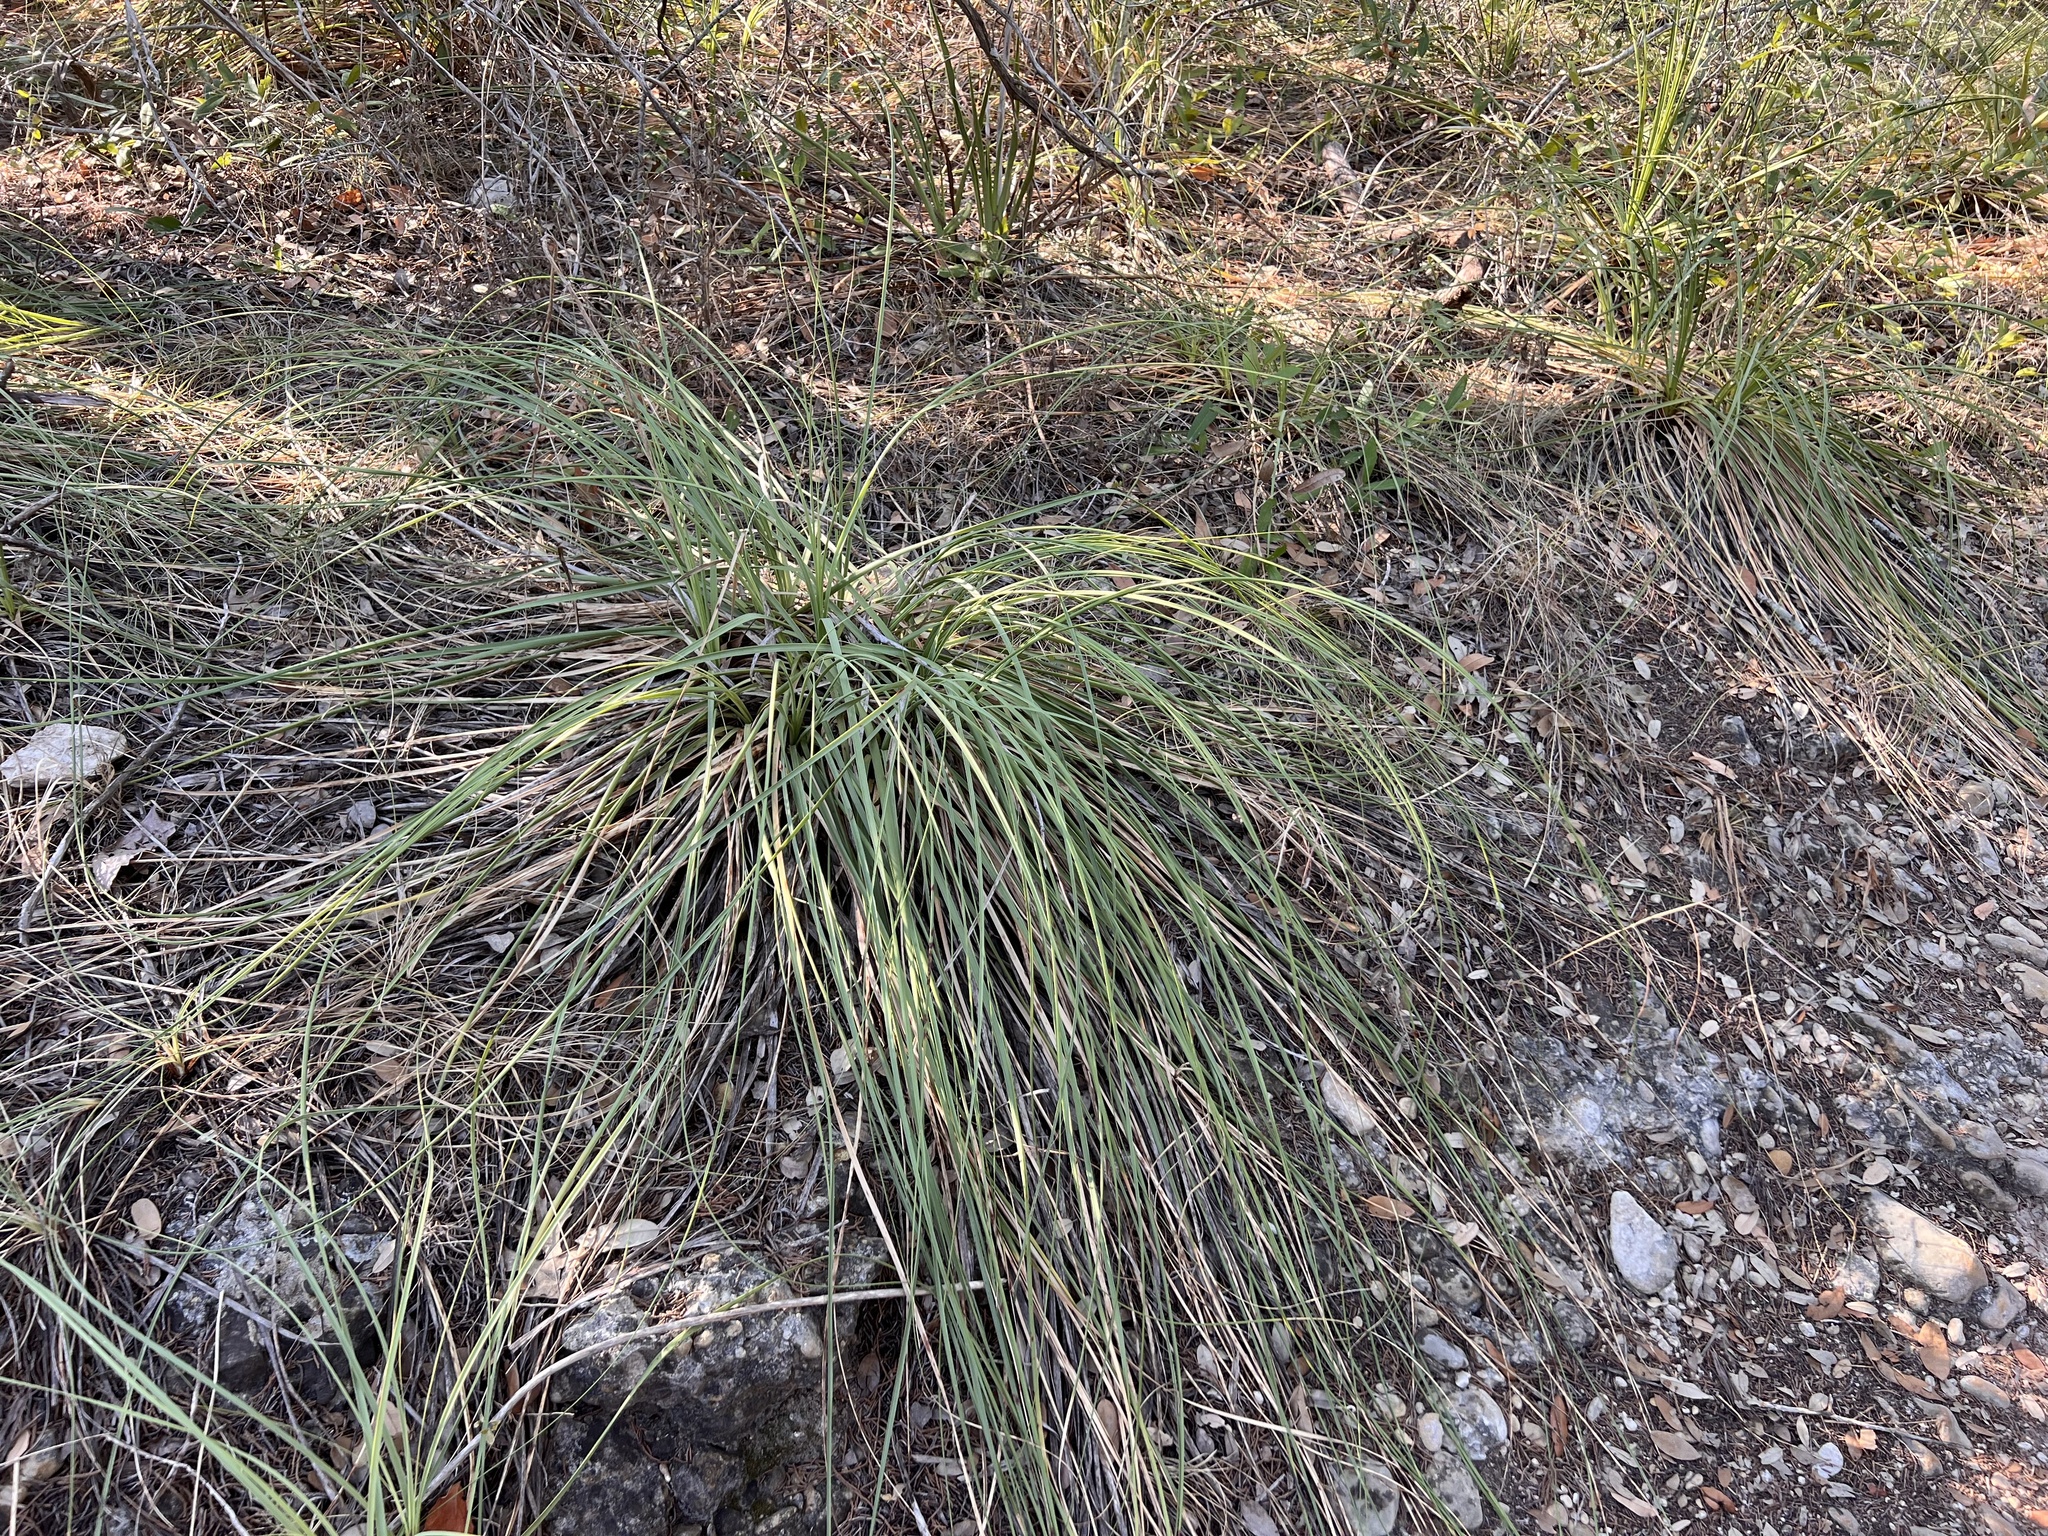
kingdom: Plantae
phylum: Tracheophyta
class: Liliopsida
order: Asparagales
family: Asparagaceae
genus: Nolina
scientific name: Nolina lindheimeriana
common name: Lindheimer's bear-grass
